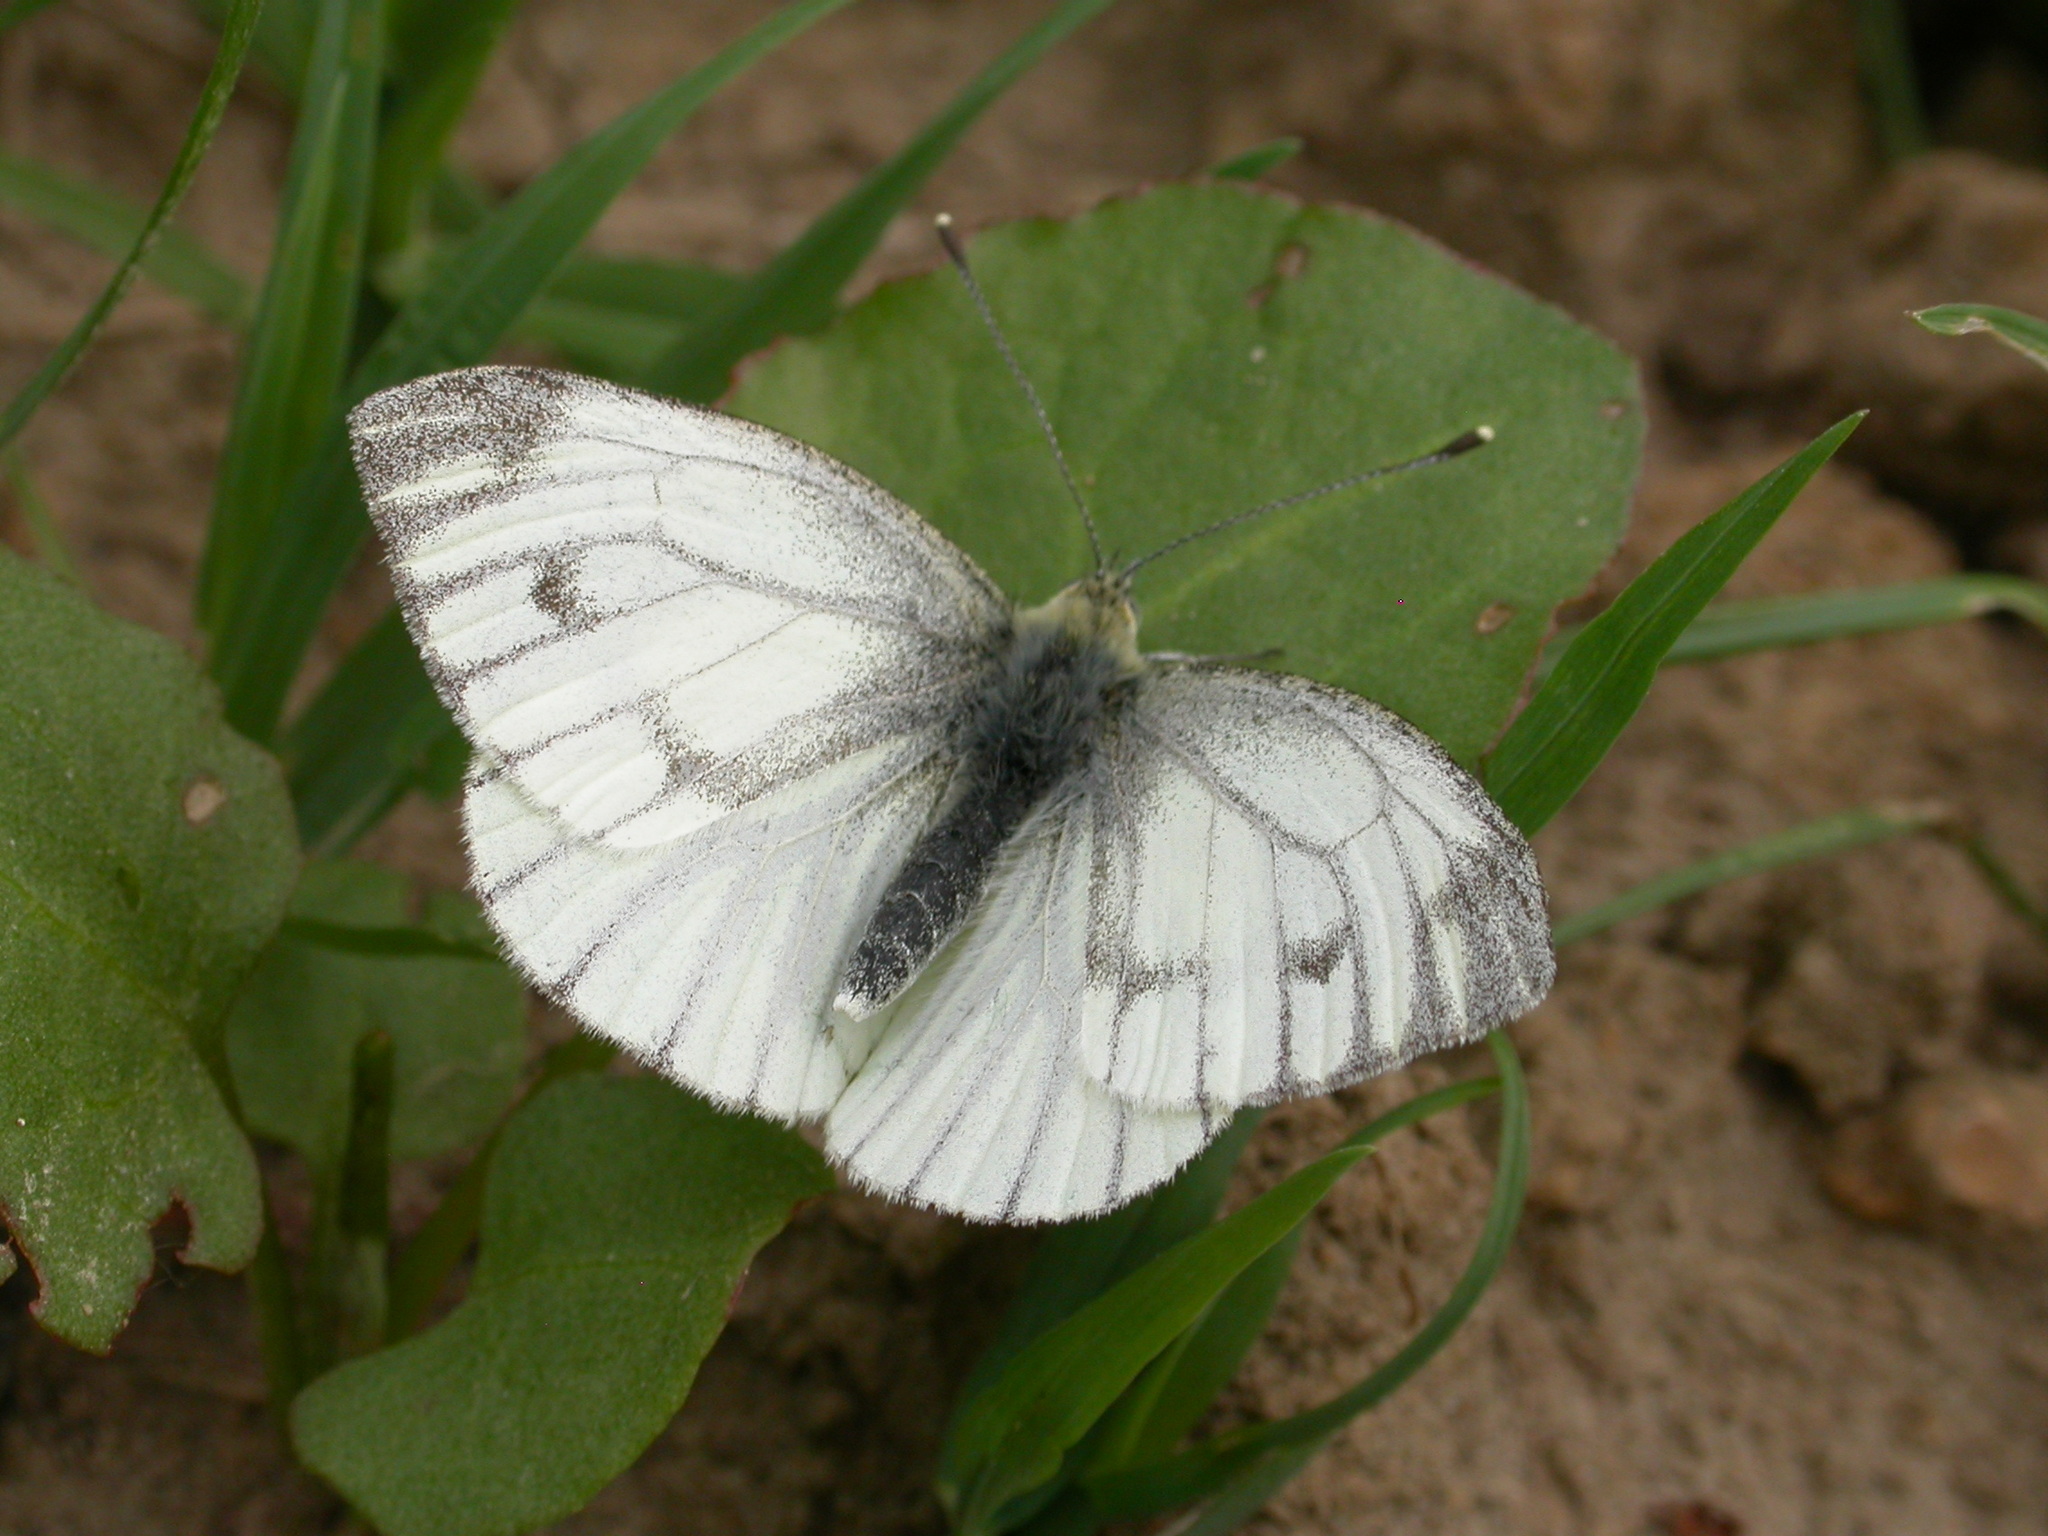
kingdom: Animalia
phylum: Arthropoda
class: Insecta
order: Lepidoptera
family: Pieridae
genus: Pieris
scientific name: Pieris napi
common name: Green-veined white
